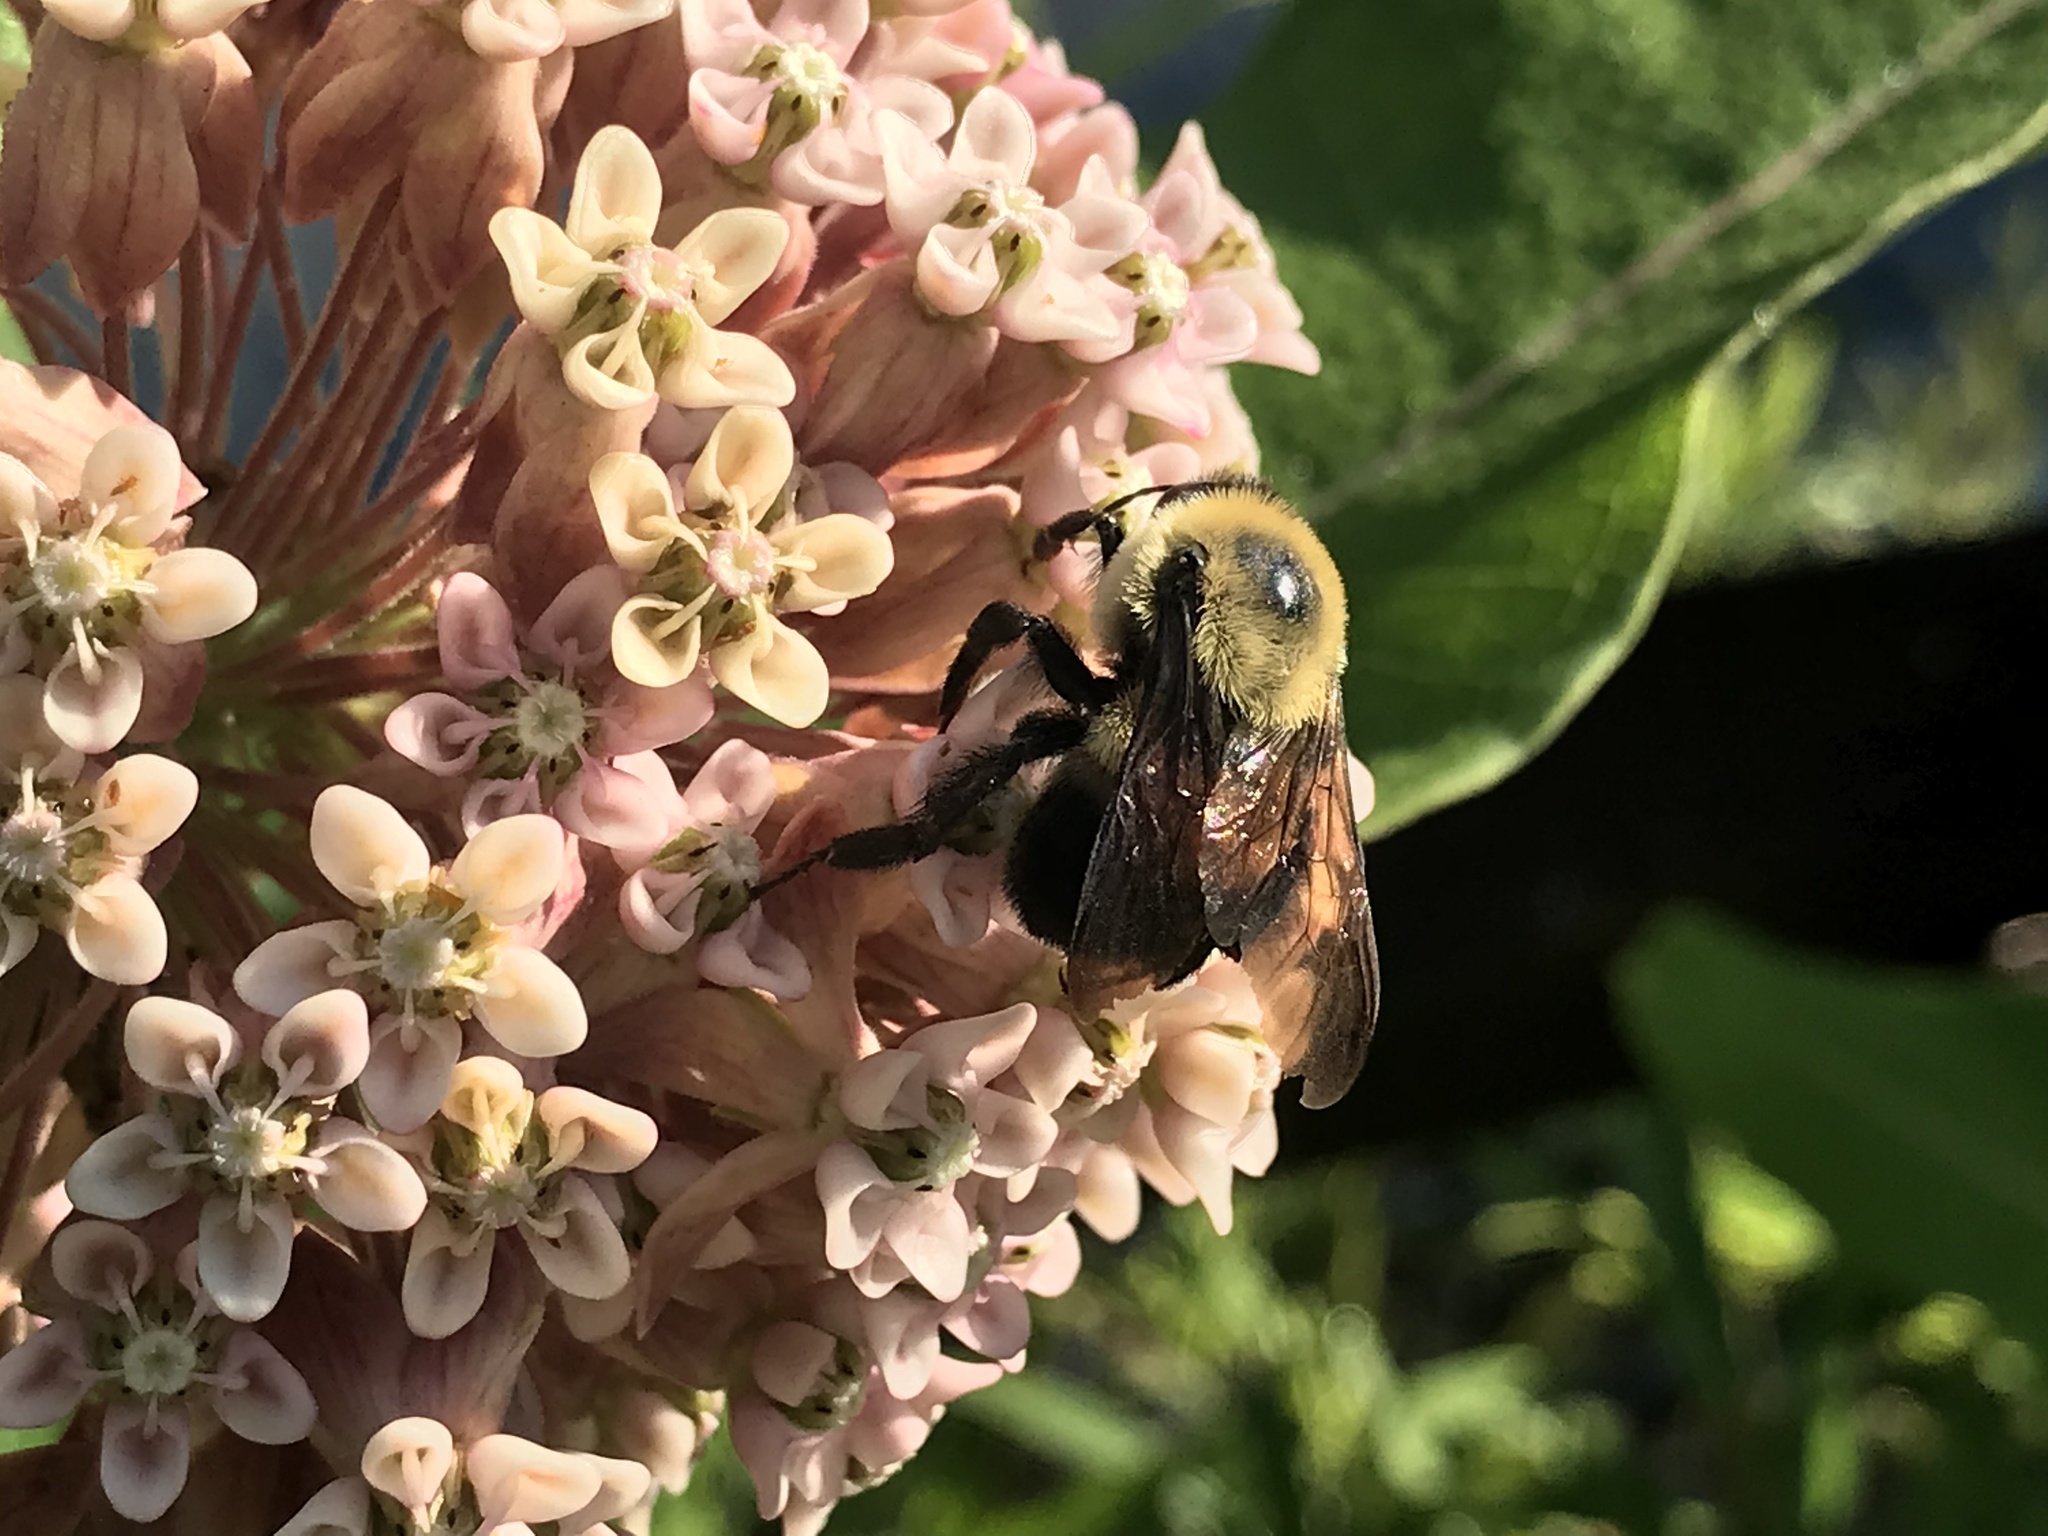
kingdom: Animalia
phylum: Arthropoda
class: Insecta
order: Hymenoptera
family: Apidae
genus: Bombus
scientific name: Bombus griseocollis
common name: Brown-belted bumble bee
